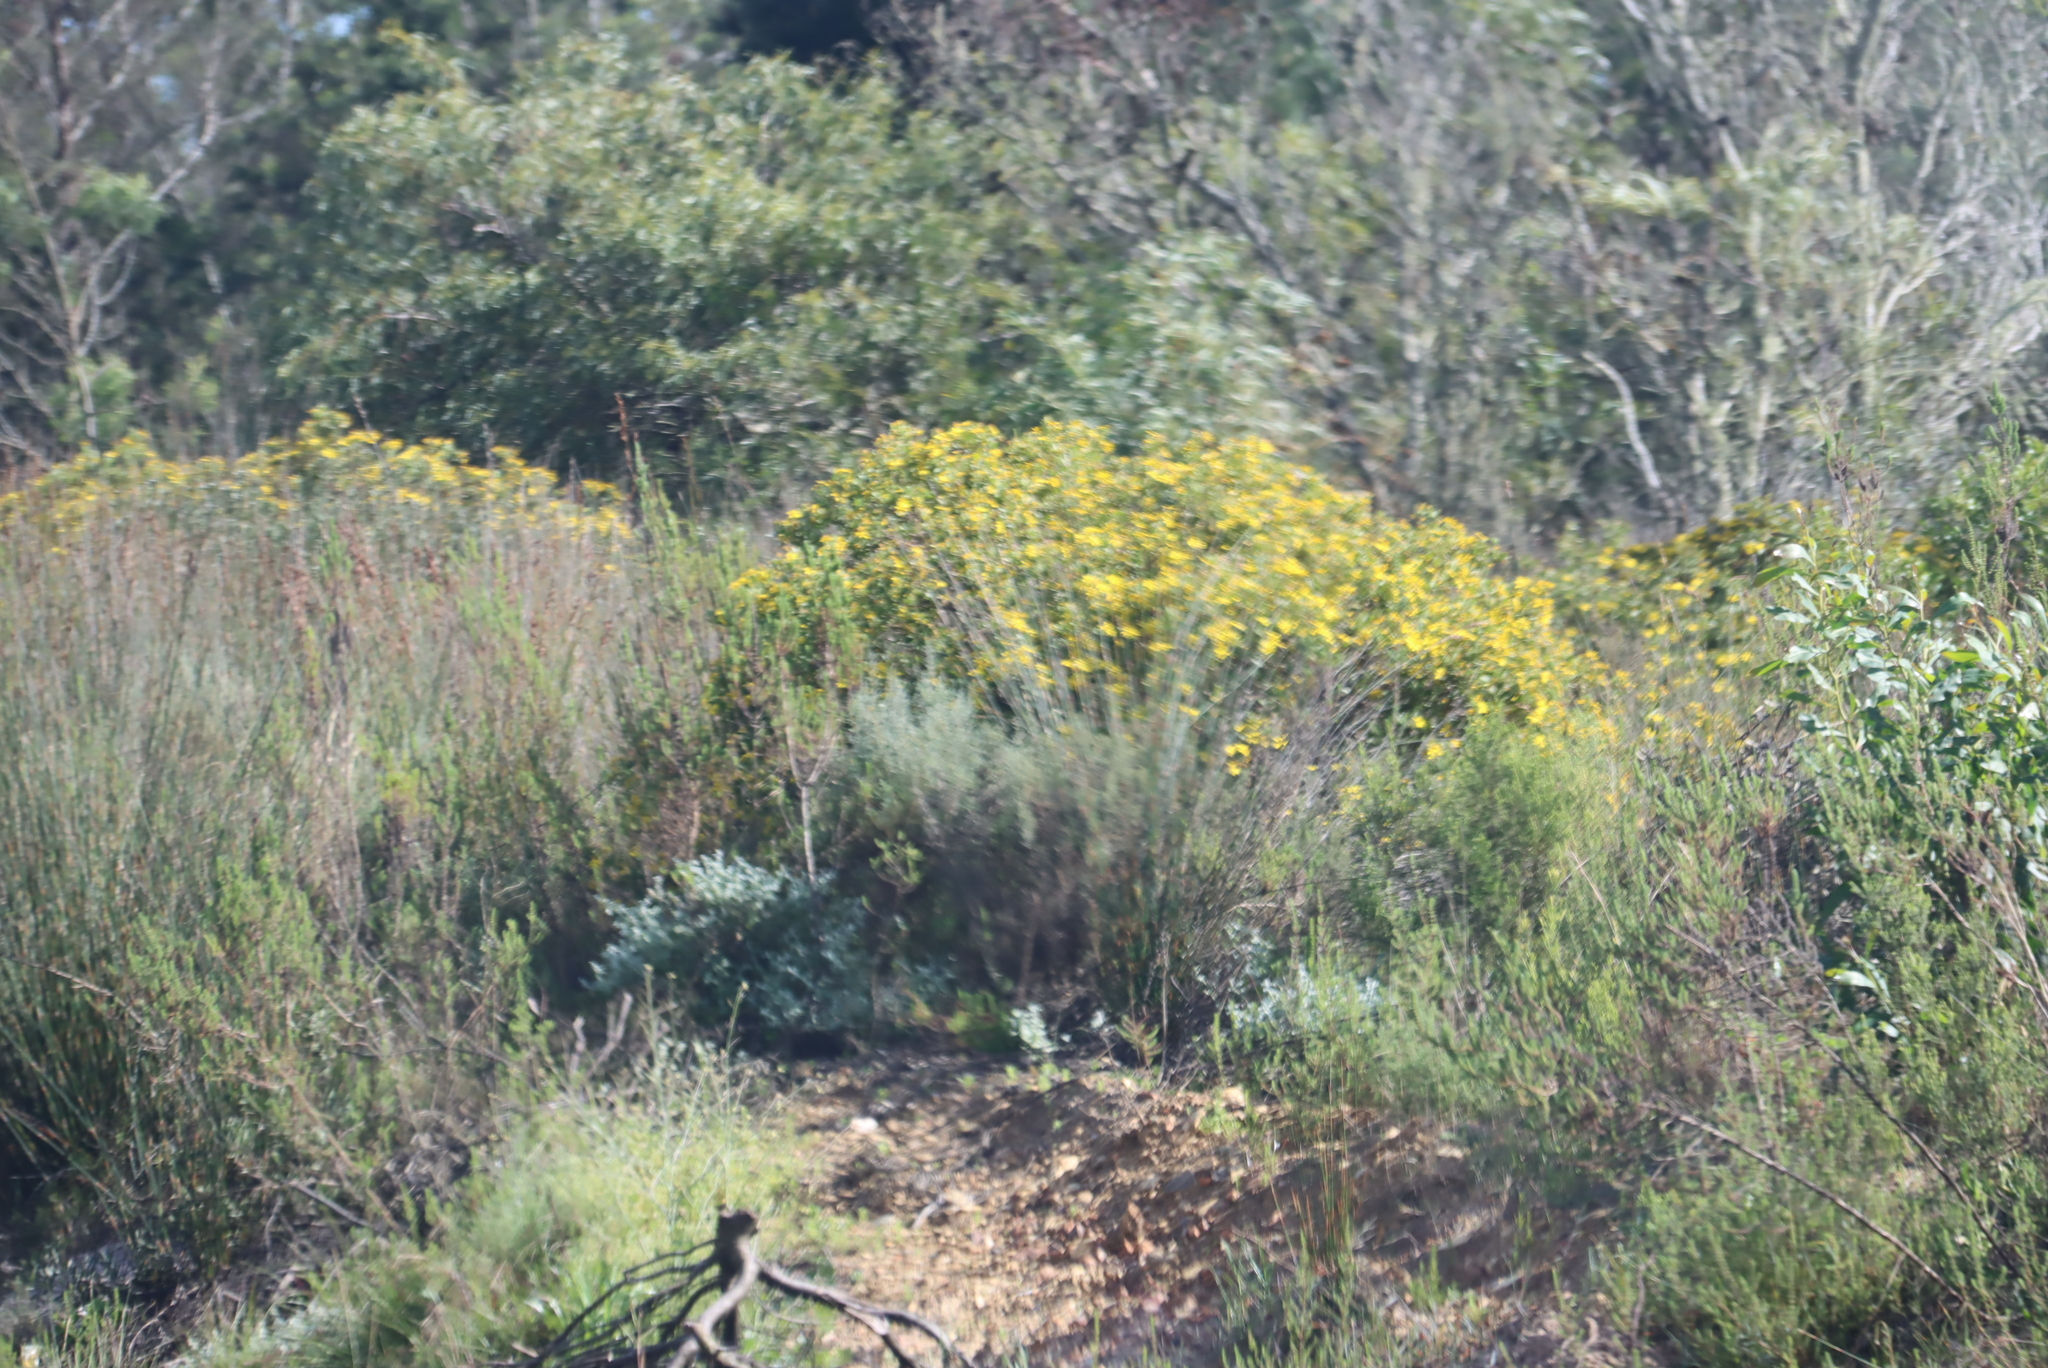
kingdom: Plantae
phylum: Tracheophyta
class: Magnoliopsida
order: Asterales
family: Asteraceae
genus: Osteospermum
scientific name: Osteospermum moniliferum
